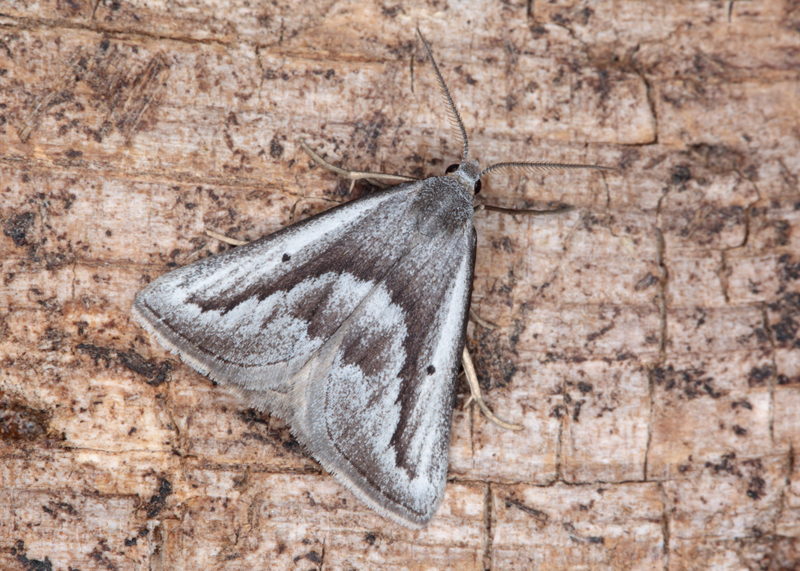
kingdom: Animalia
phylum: Arthropoda
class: Insecta
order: Lepidoptera
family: Geometridae
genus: Adeixis
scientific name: Adeixis griseata
